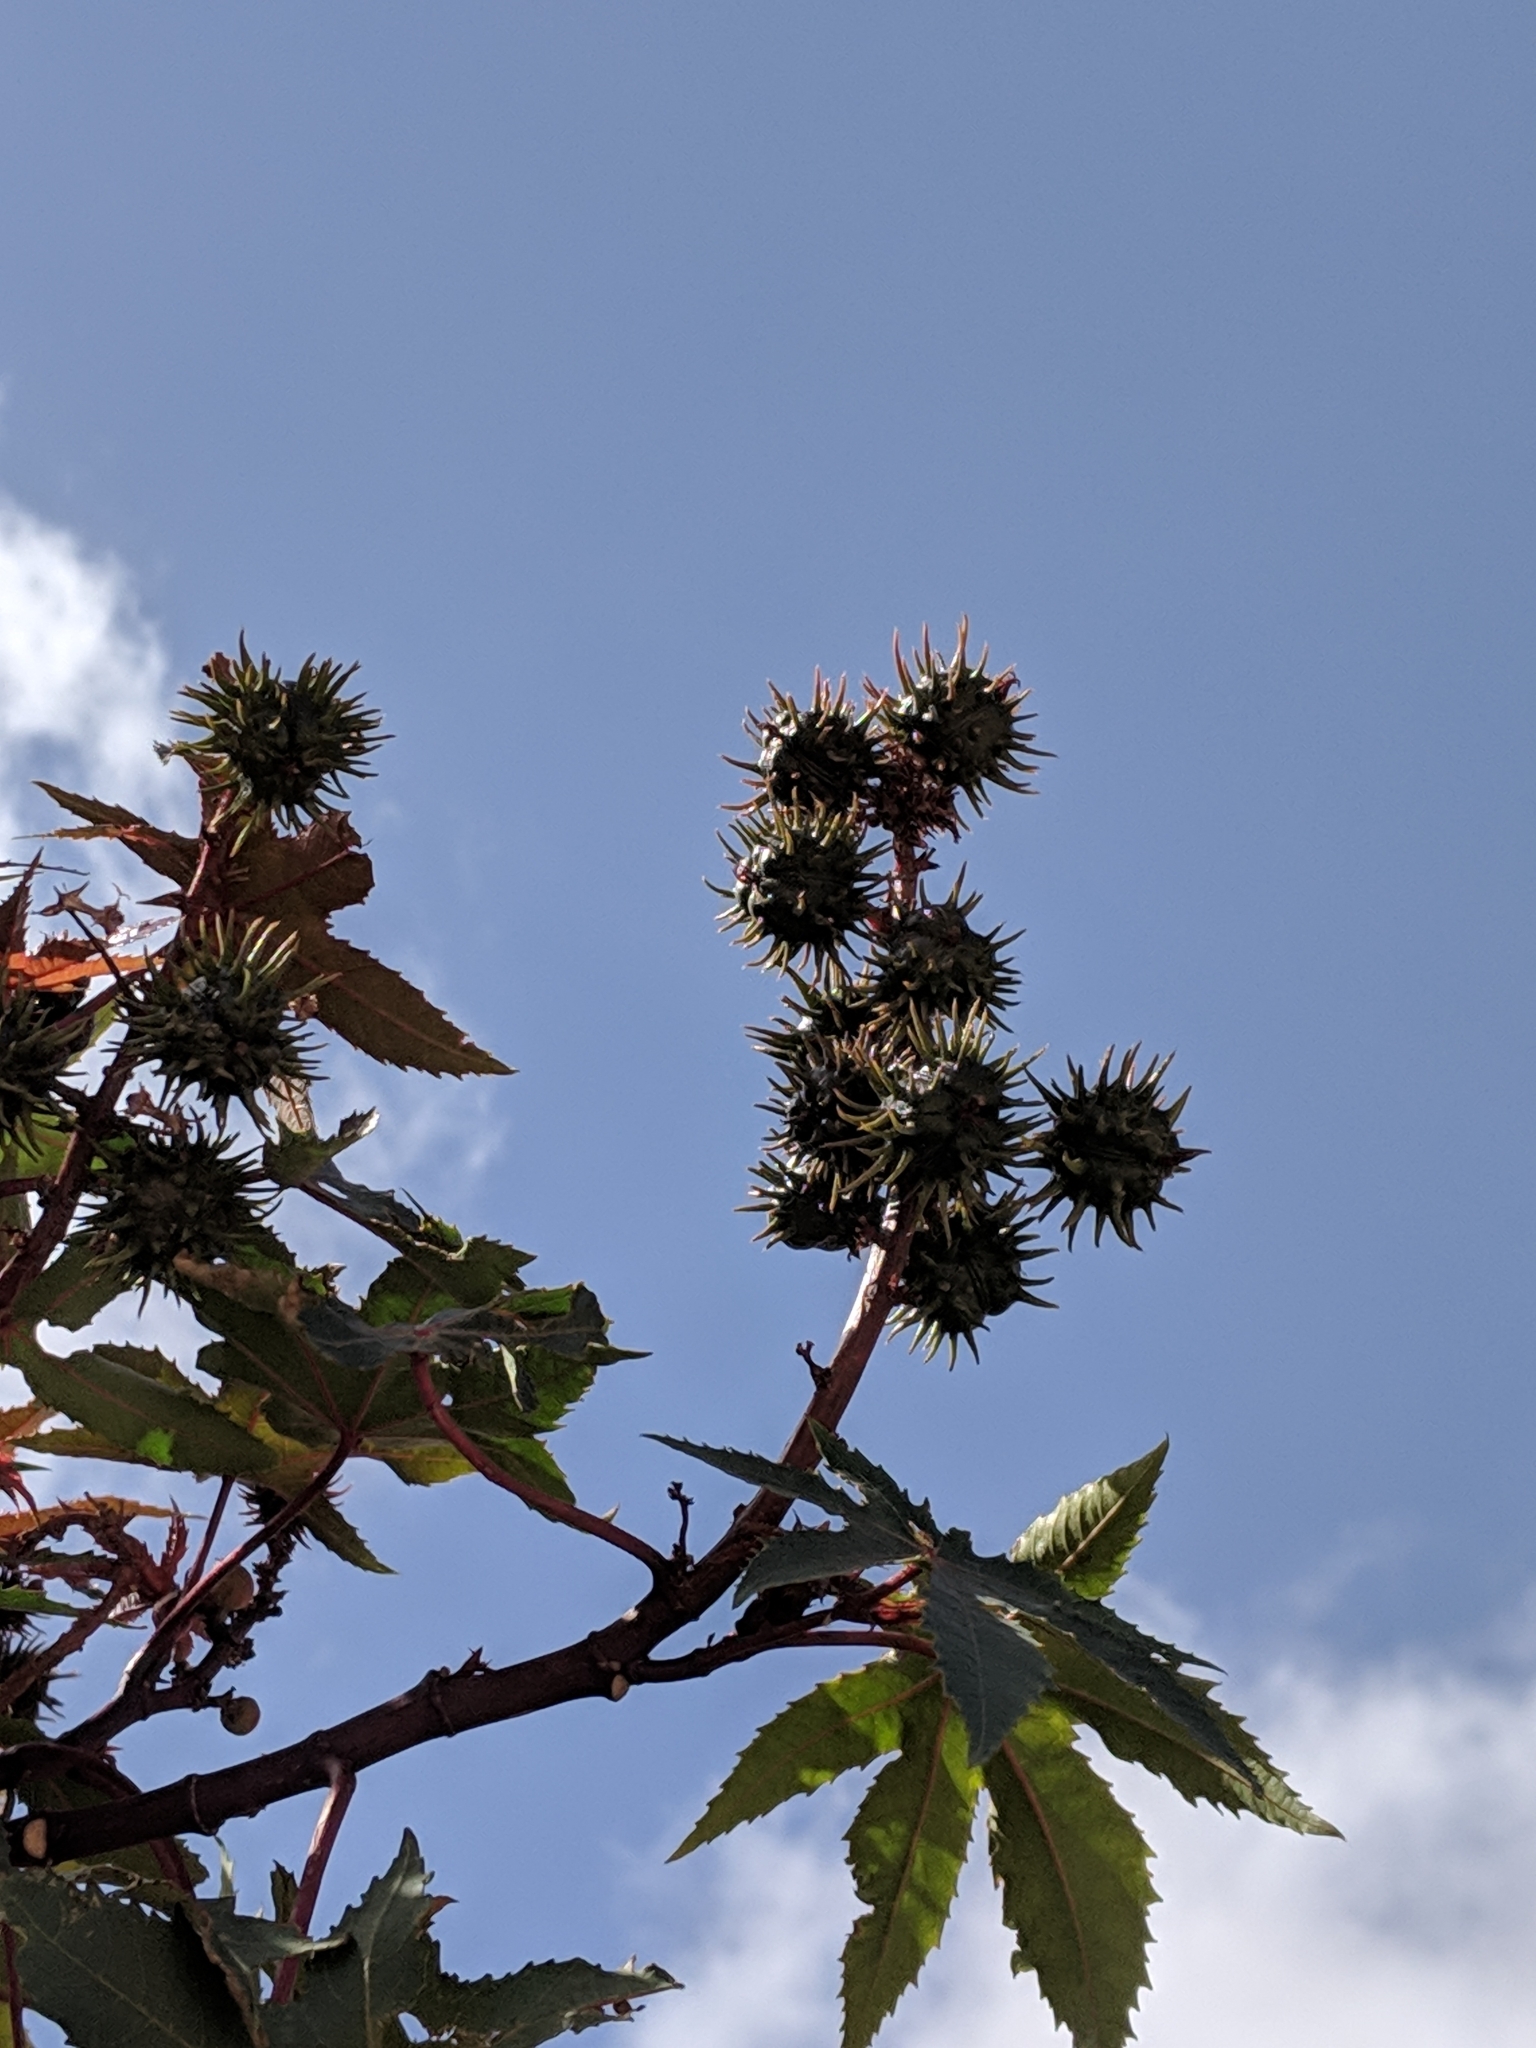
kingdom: Plantae
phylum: Tracheophyta
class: Magnoliopsida
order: Malpighiales
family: Euphorbiaceae
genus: Ricinus
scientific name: Ricinus communis
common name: Castor-oil-plant
